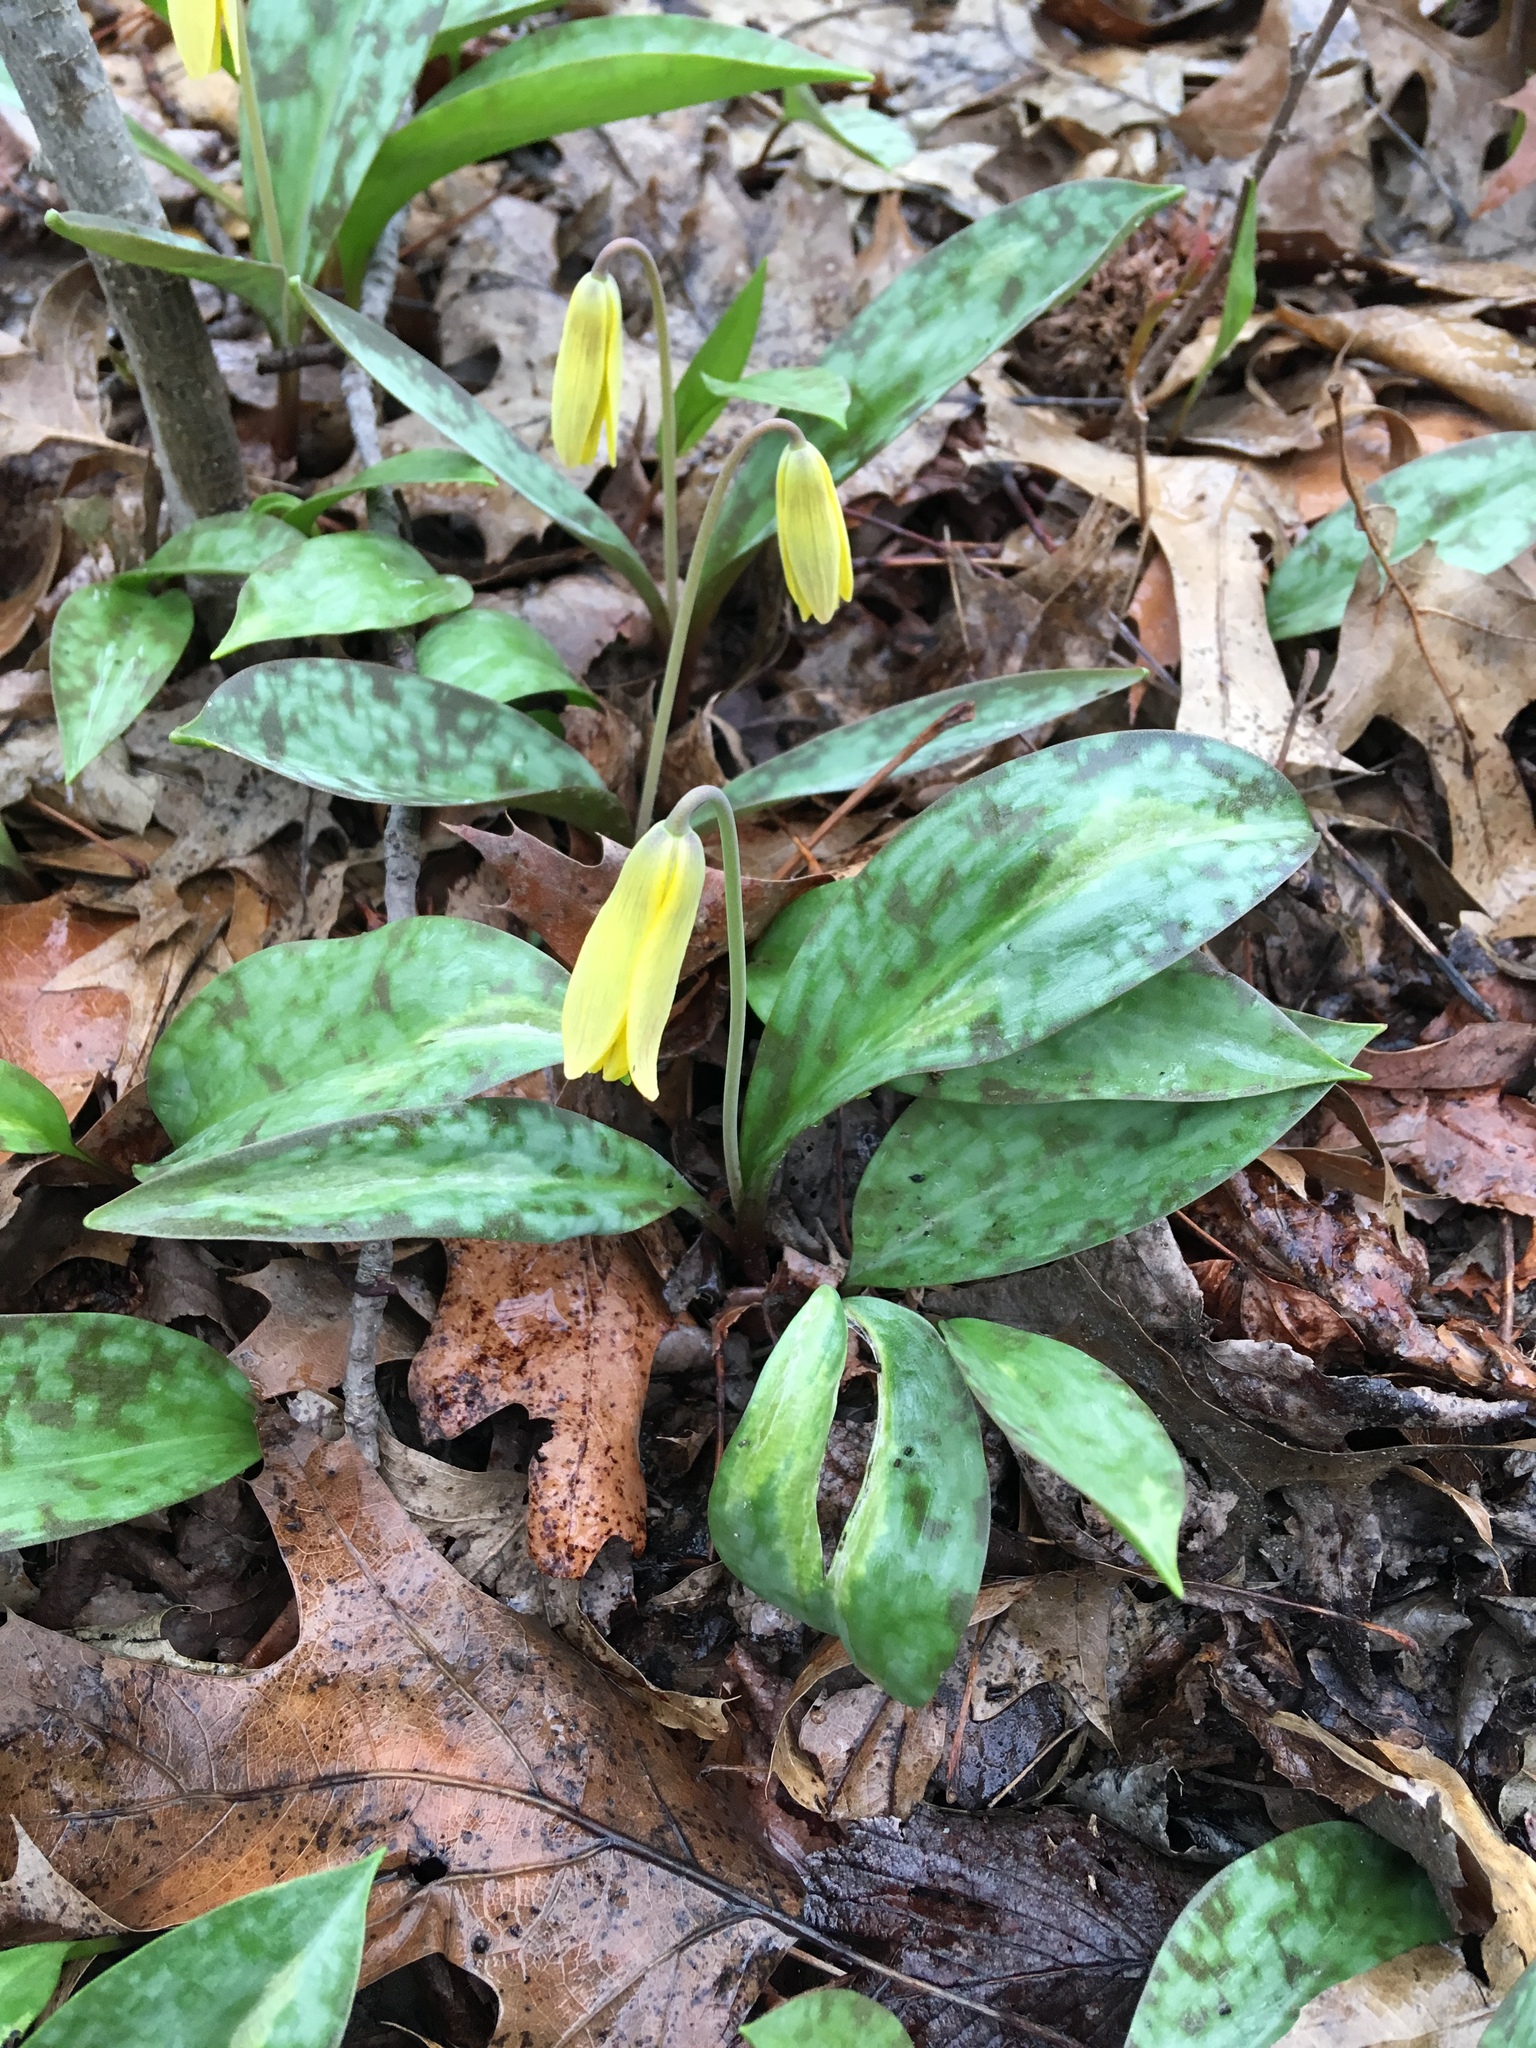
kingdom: Plantae
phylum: Tracheophyta
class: Liliopsida
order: Liliales
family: Liliaceae
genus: Erythronium
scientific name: Erythronium americanum
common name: Yellow adder's-tongue
